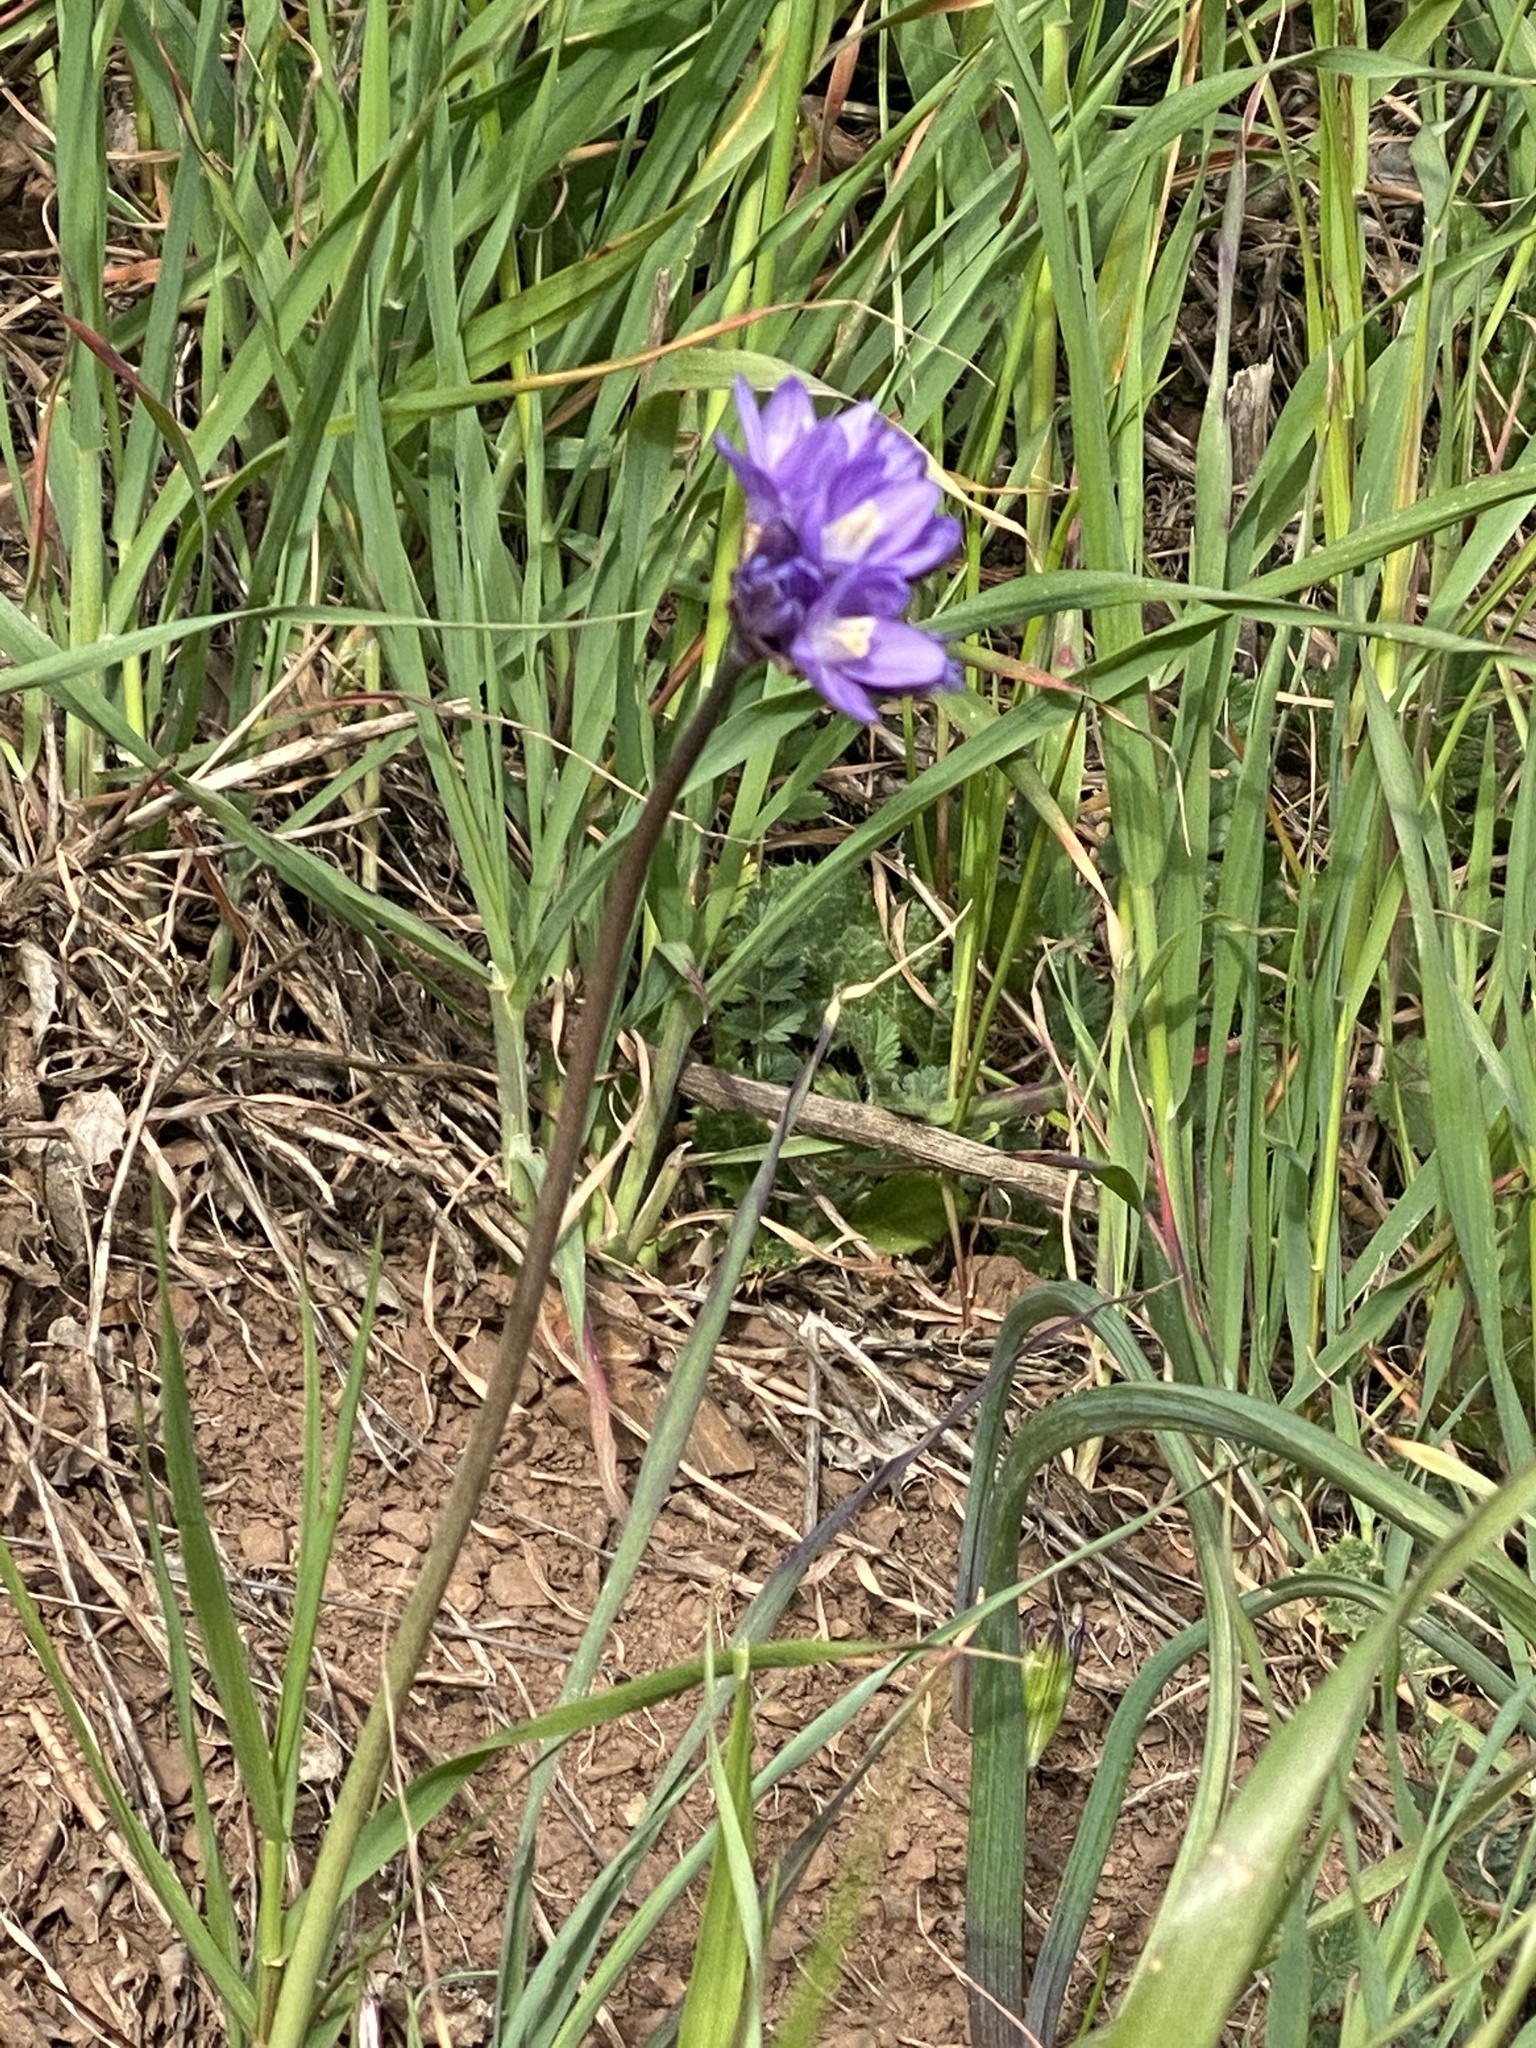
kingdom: Plantae
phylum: Tracheophyta
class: Liliopsida
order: Asparagales
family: Asparagaceae
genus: Dipterostemon
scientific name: Dipterostemon capitatus
